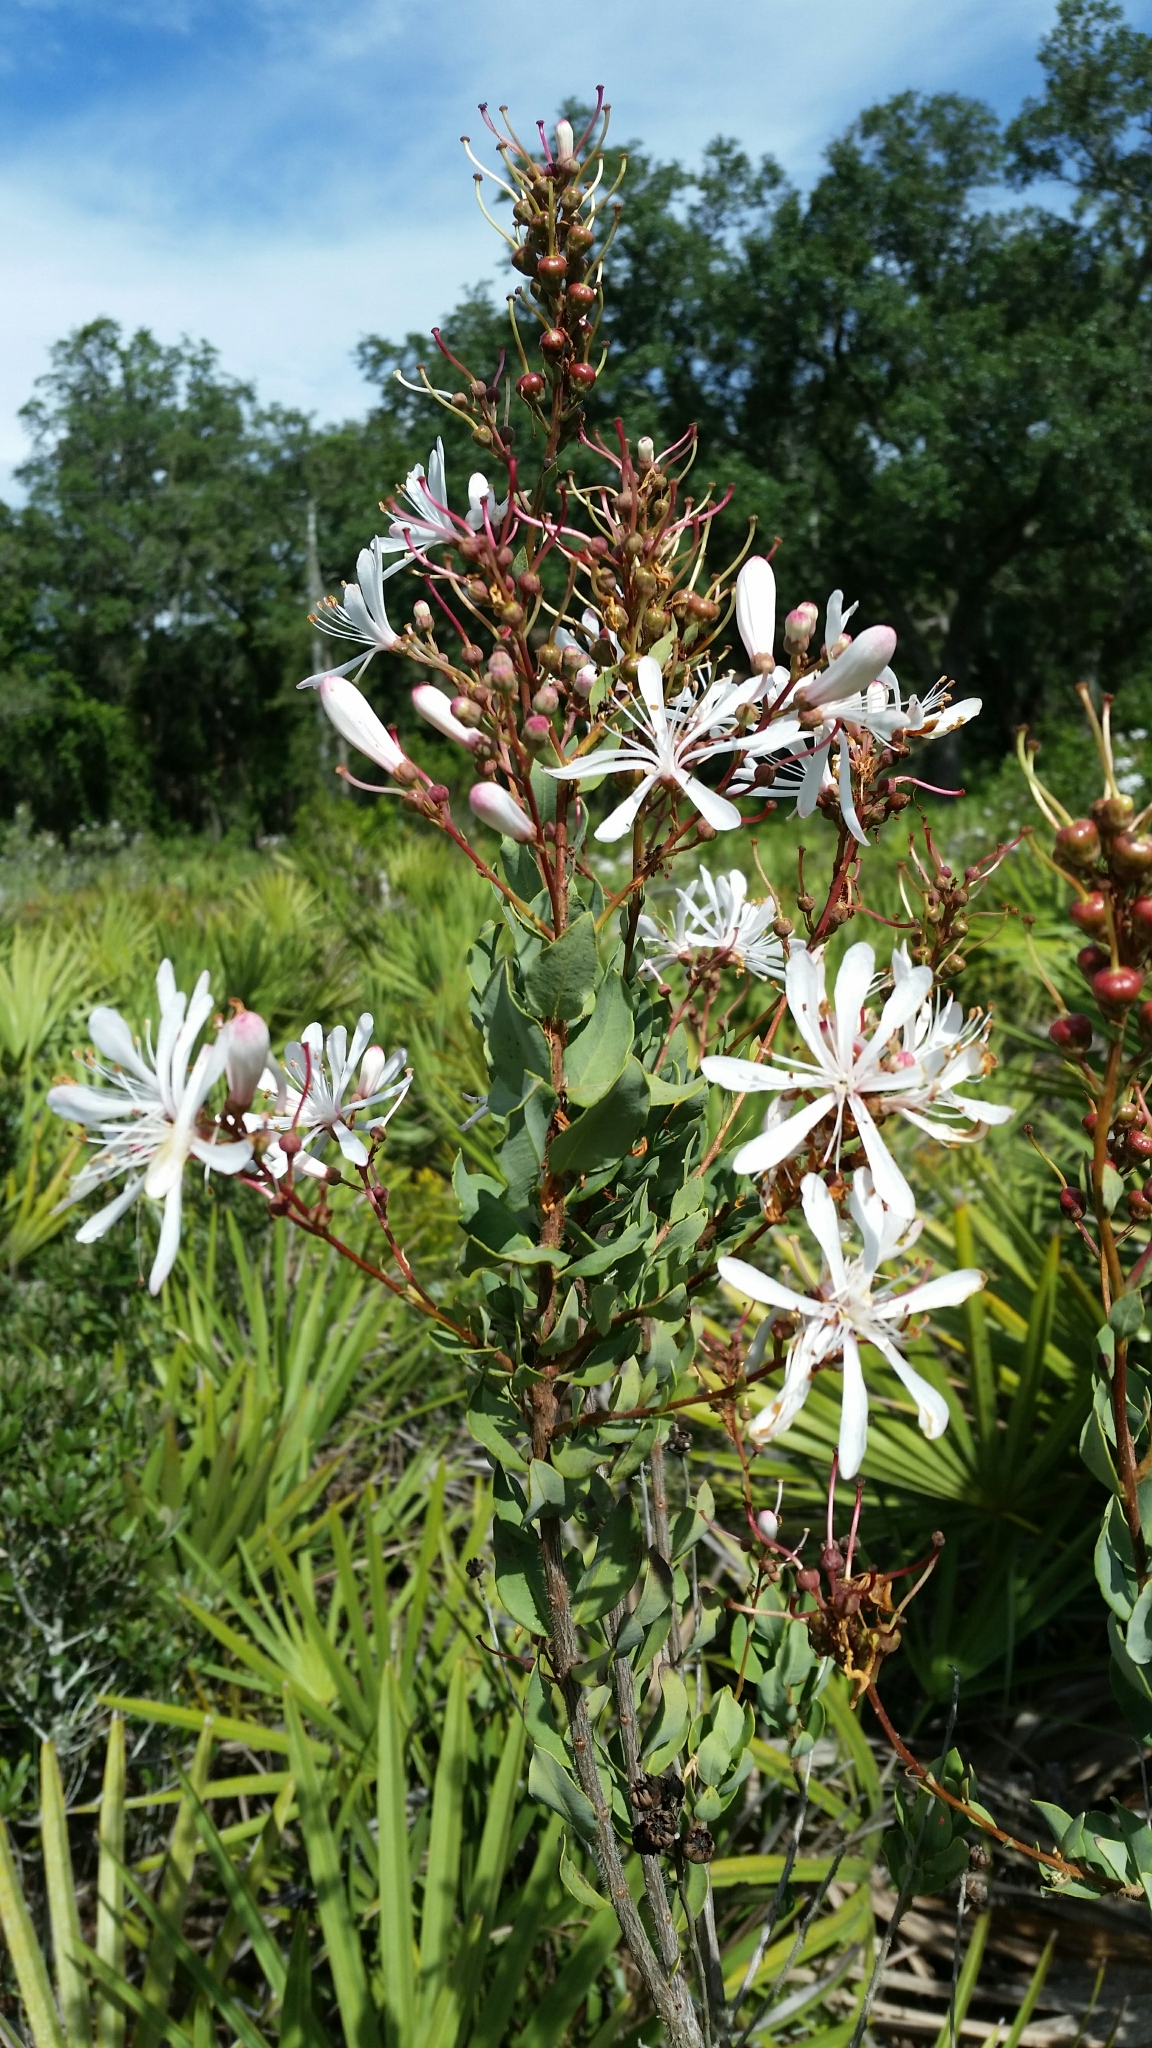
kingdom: Plantae
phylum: Tracheophyta
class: Magnoliopsida
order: Ericales
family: Ericaceae
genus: Bejaria
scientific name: Bejaria racemosa
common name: Tarflower
